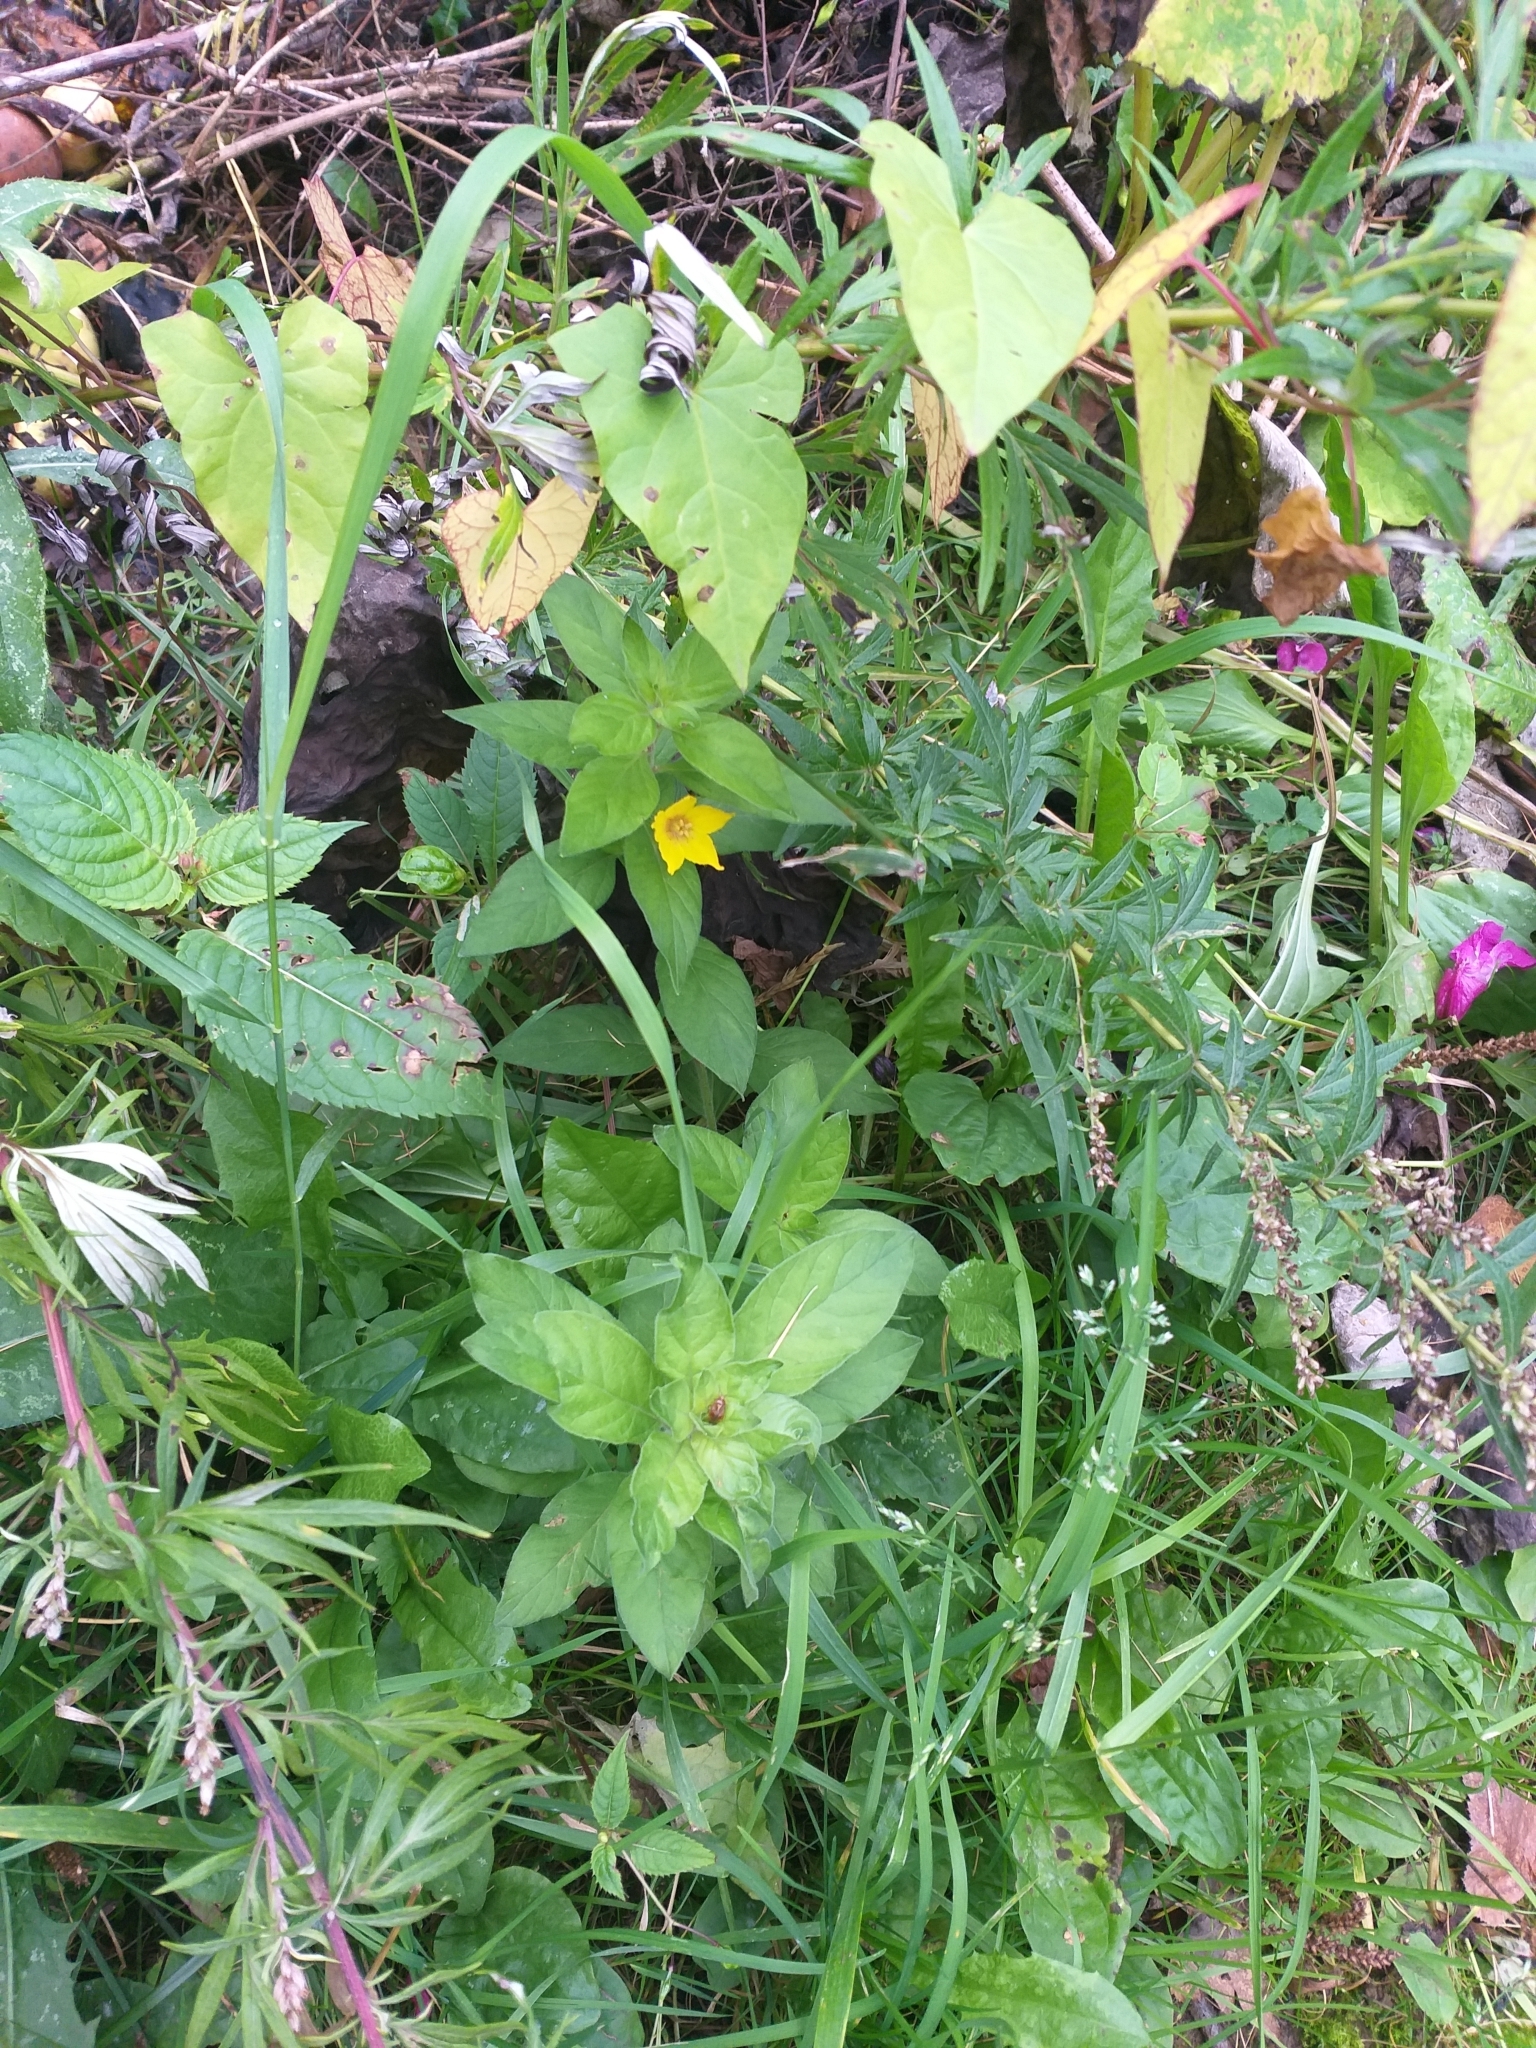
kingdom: Plantae
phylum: Tracheophyta
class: Magnoliopsida
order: Ericales
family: Primulaceae
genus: Lysimachia
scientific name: Lysimachia punctata
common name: Dotted loosestrife
